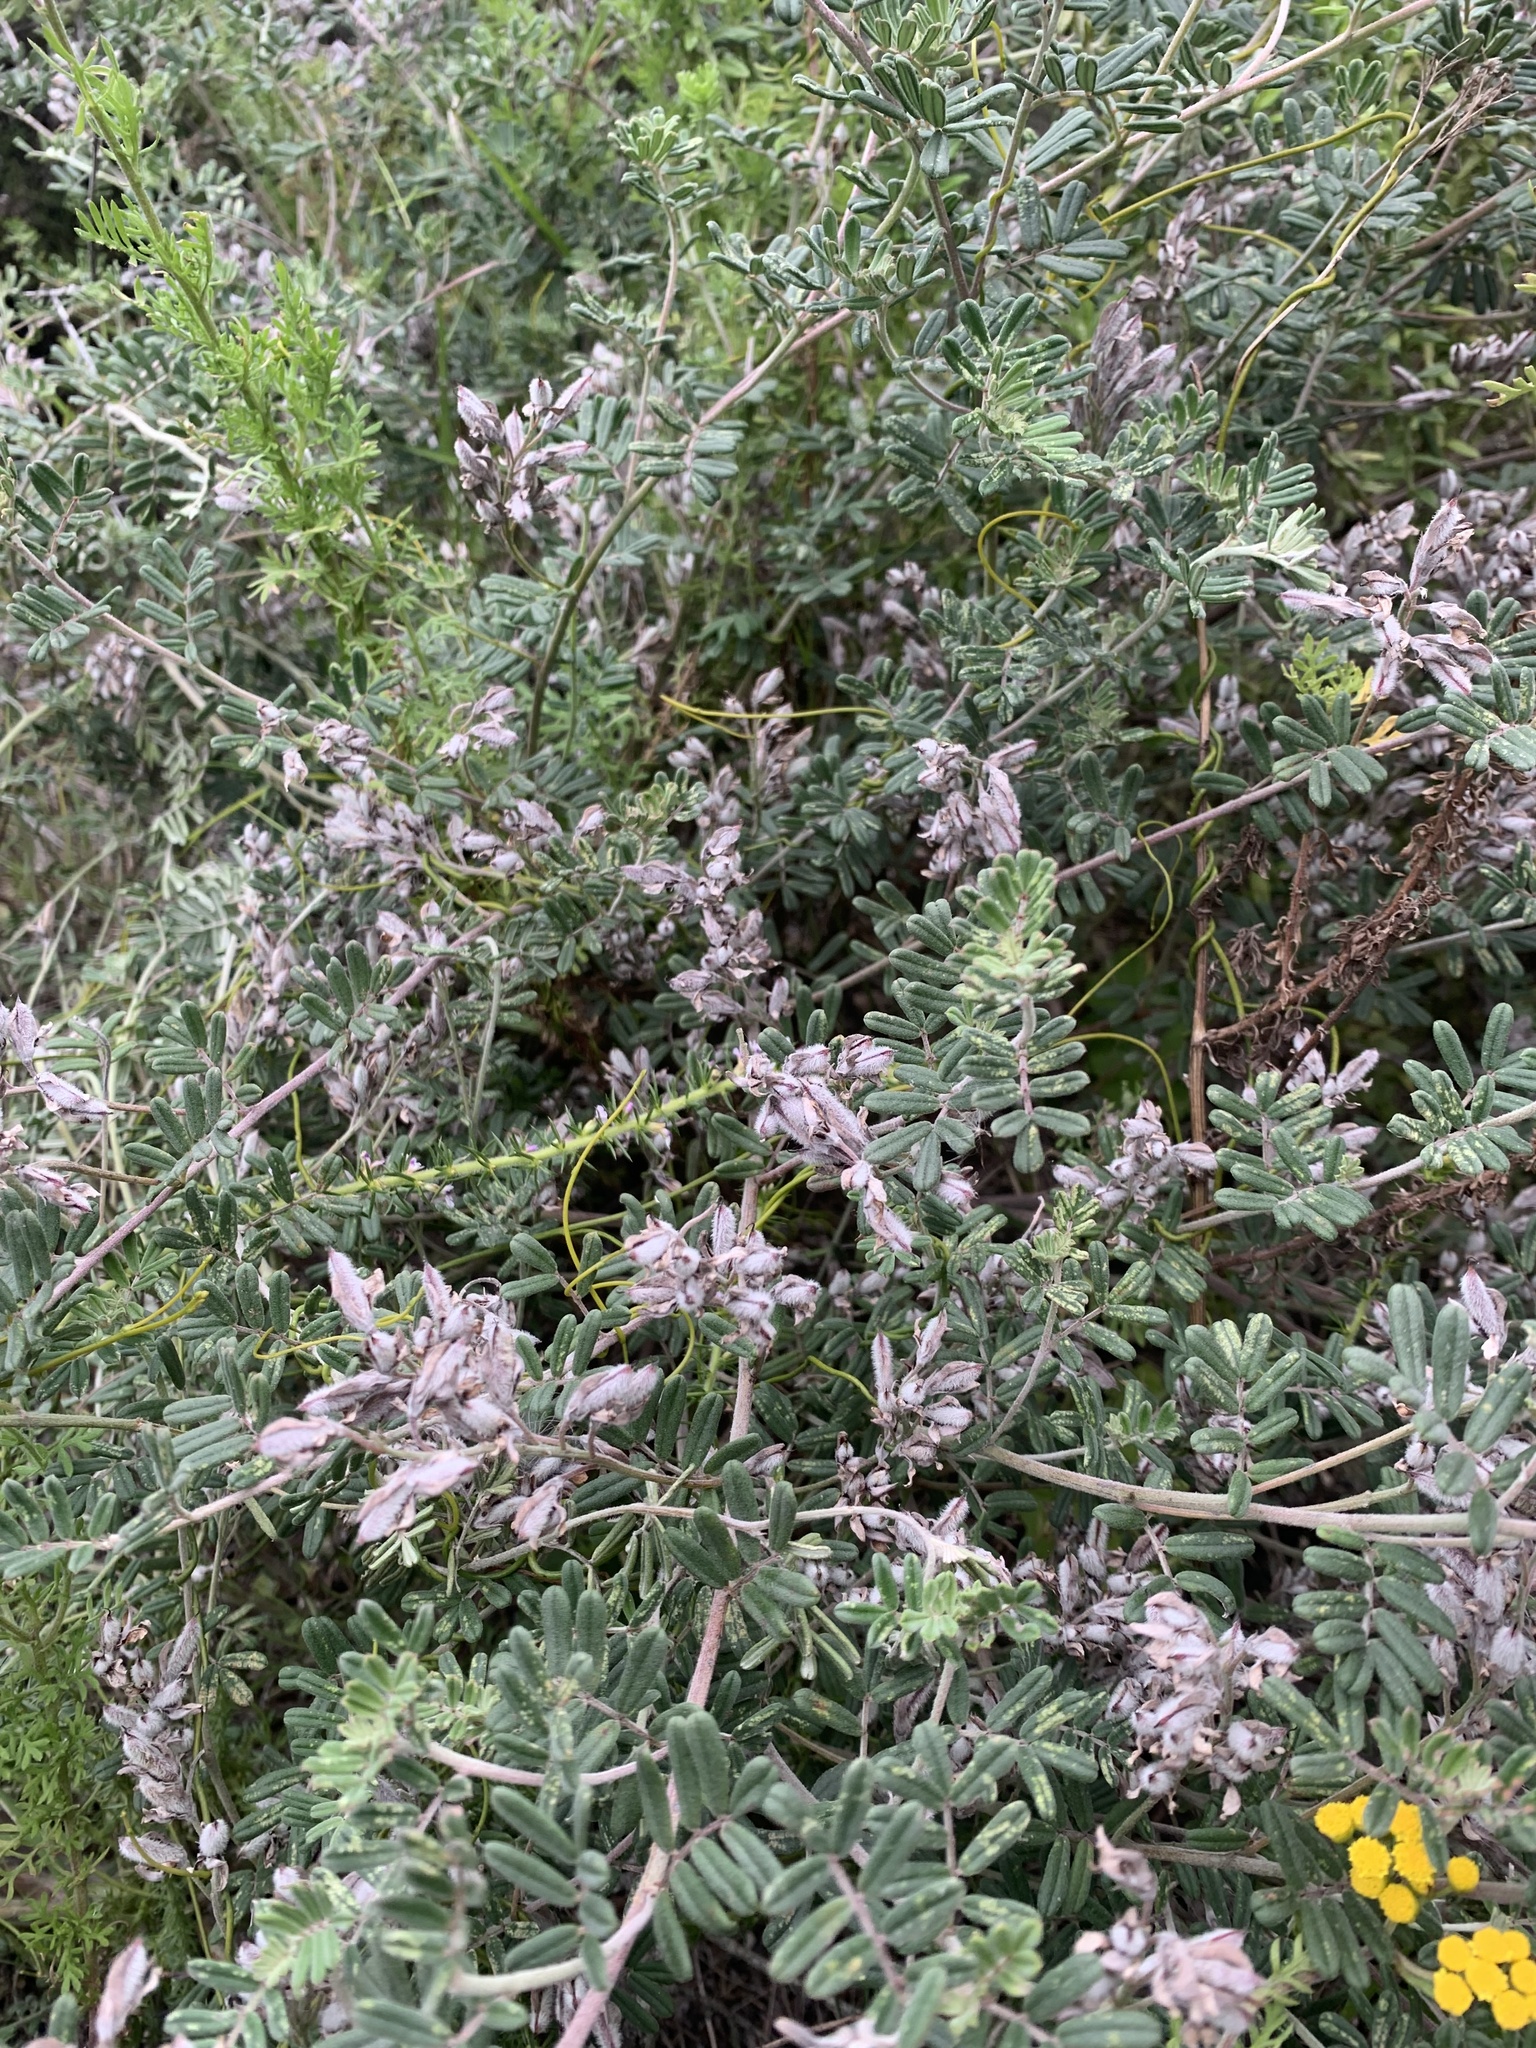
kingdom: Plantae
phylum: Tracheophyta
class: Magnoliopsida
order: Fabales
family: Fabaceae
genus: Microcharis
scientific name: Microcharis praetermissa
